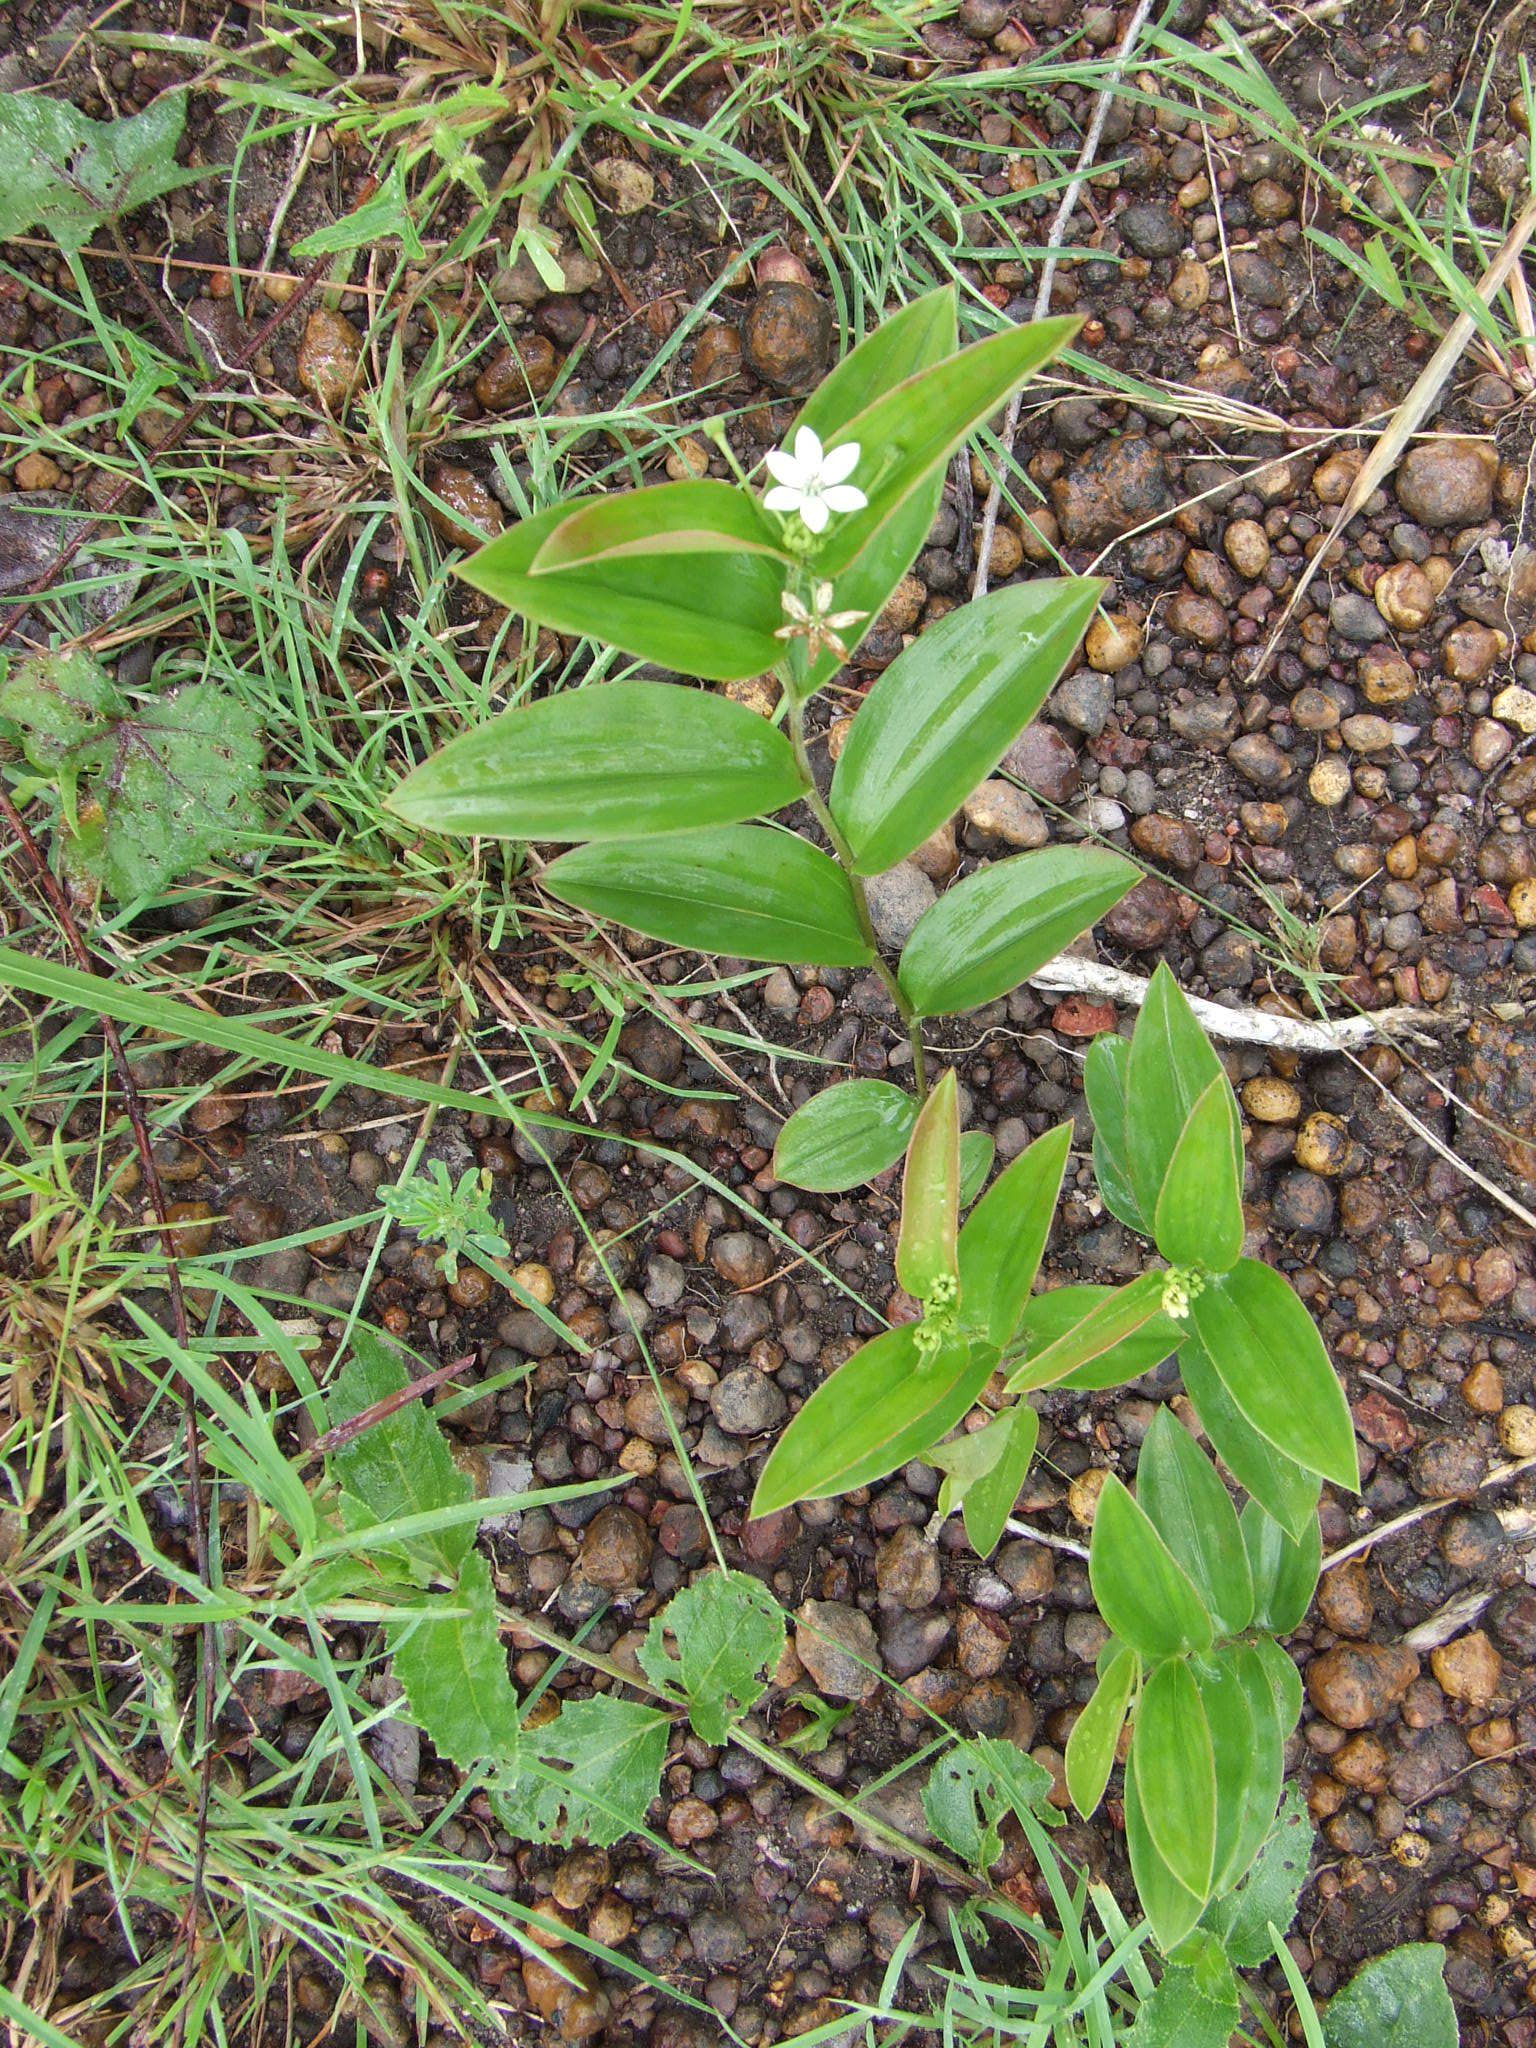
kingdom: Plantae
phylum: Tracheophyta
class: Liliopsida
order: Liliales
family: Colchicaceae
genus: Schelhammera
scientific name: Schelhammera multiflora
